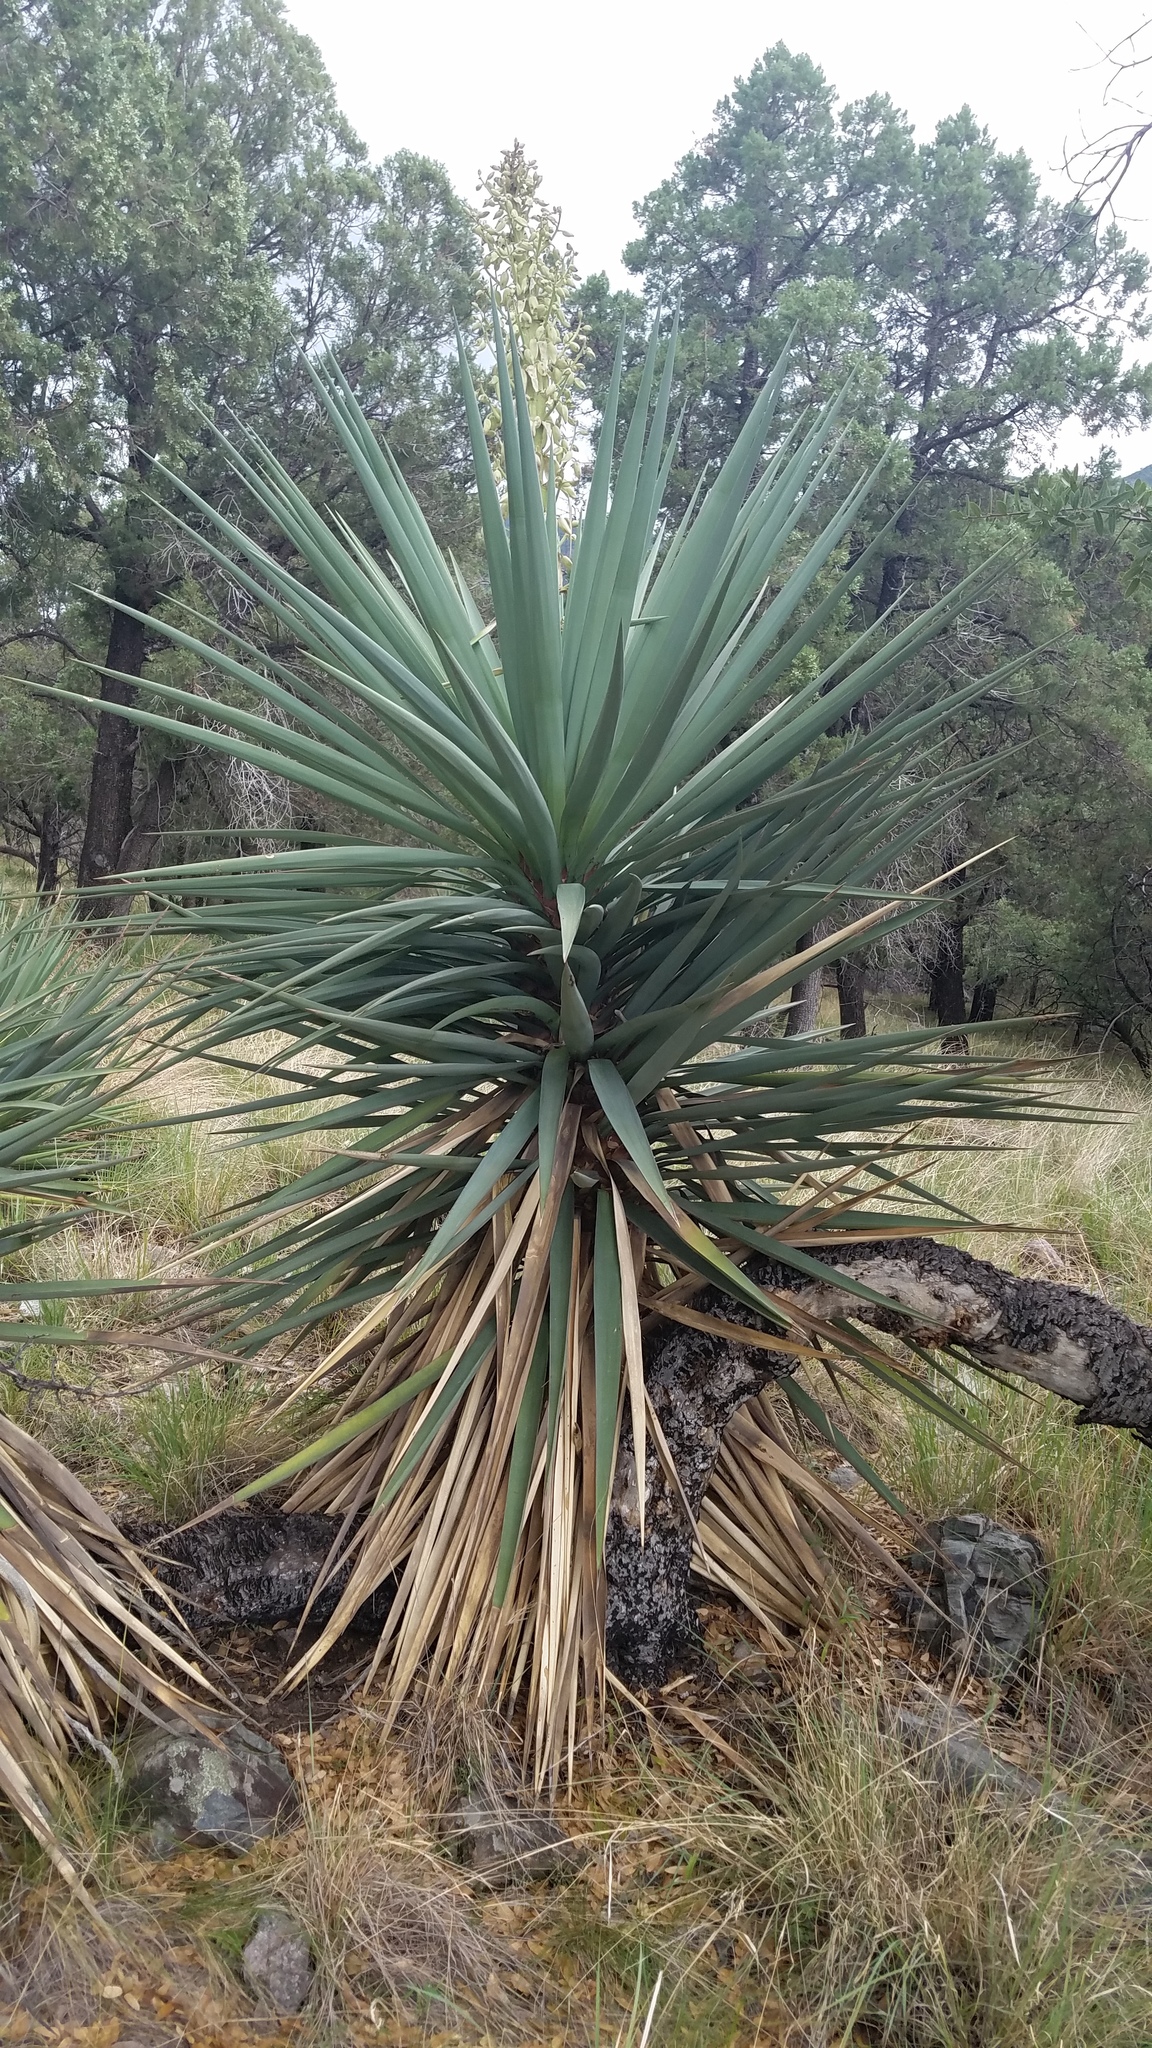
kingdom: Plantae
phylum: Tracheophyta
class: Liliopsida
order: Asparagales
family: Asparagaceae
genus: Yucca
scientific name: Yucca madrensis
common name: Hoary yucca
